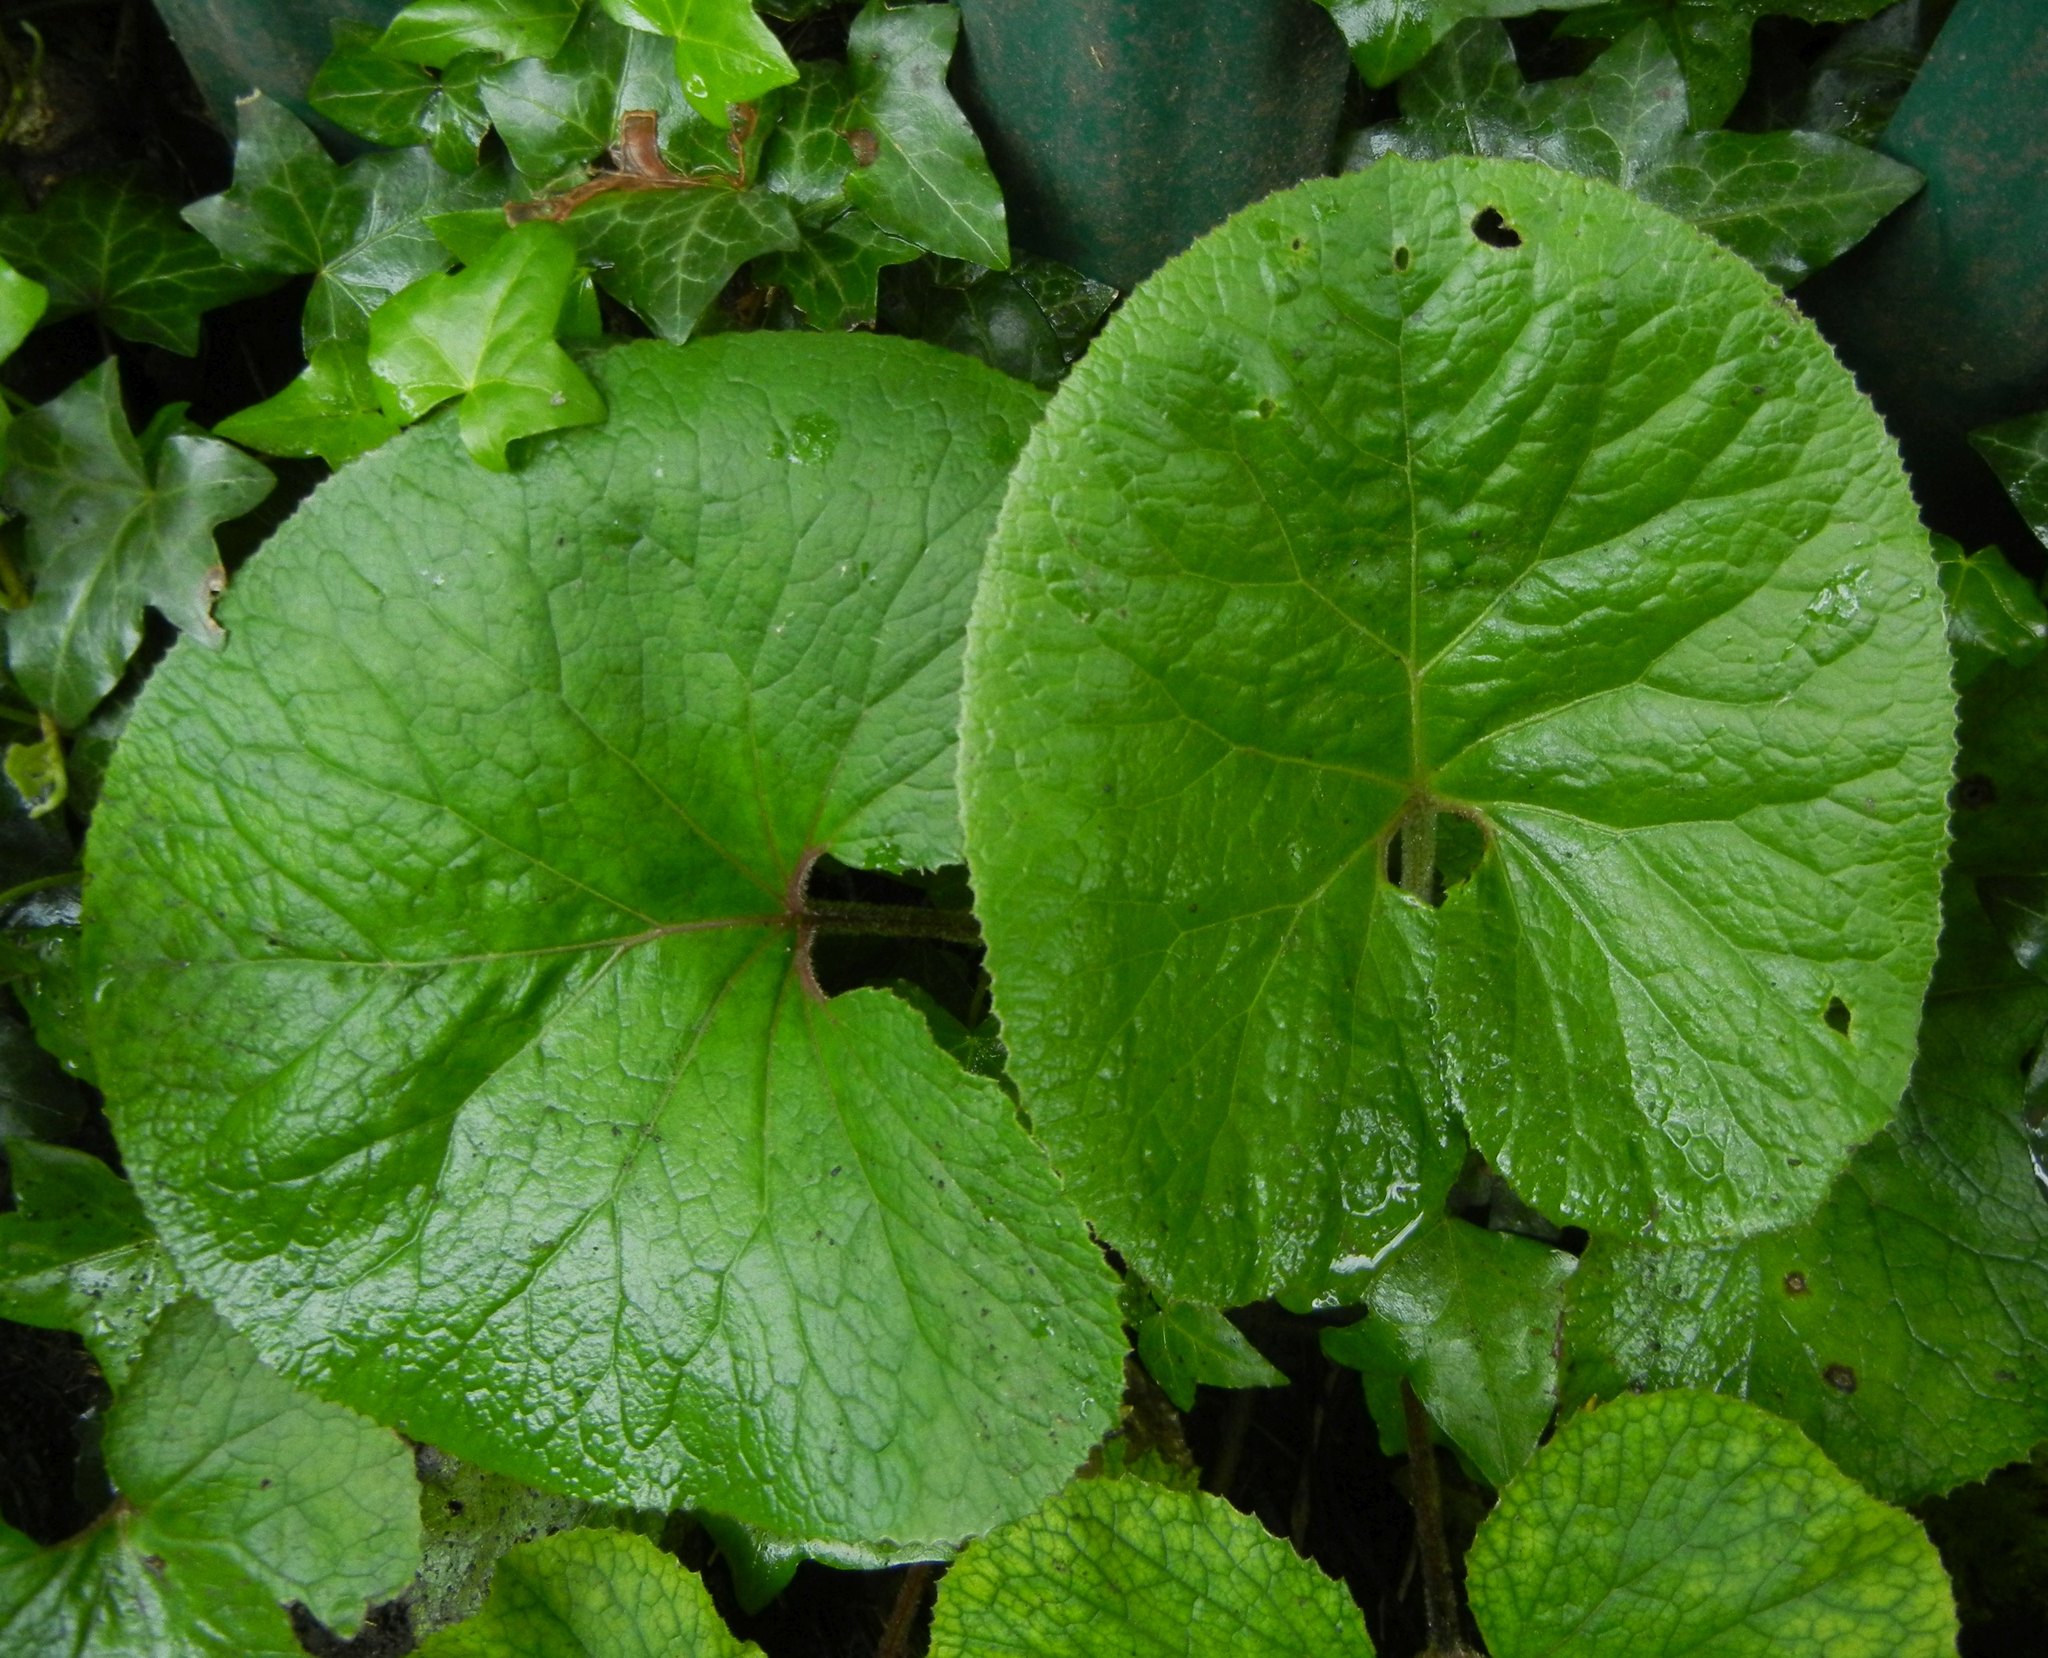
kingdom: Plantae
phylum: Tracheophyta
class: Magnoliopsida
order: Asterales
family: Asteraceae
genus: Petasites
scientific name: Petasites pyrenaicus
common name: Winter heliotrope
